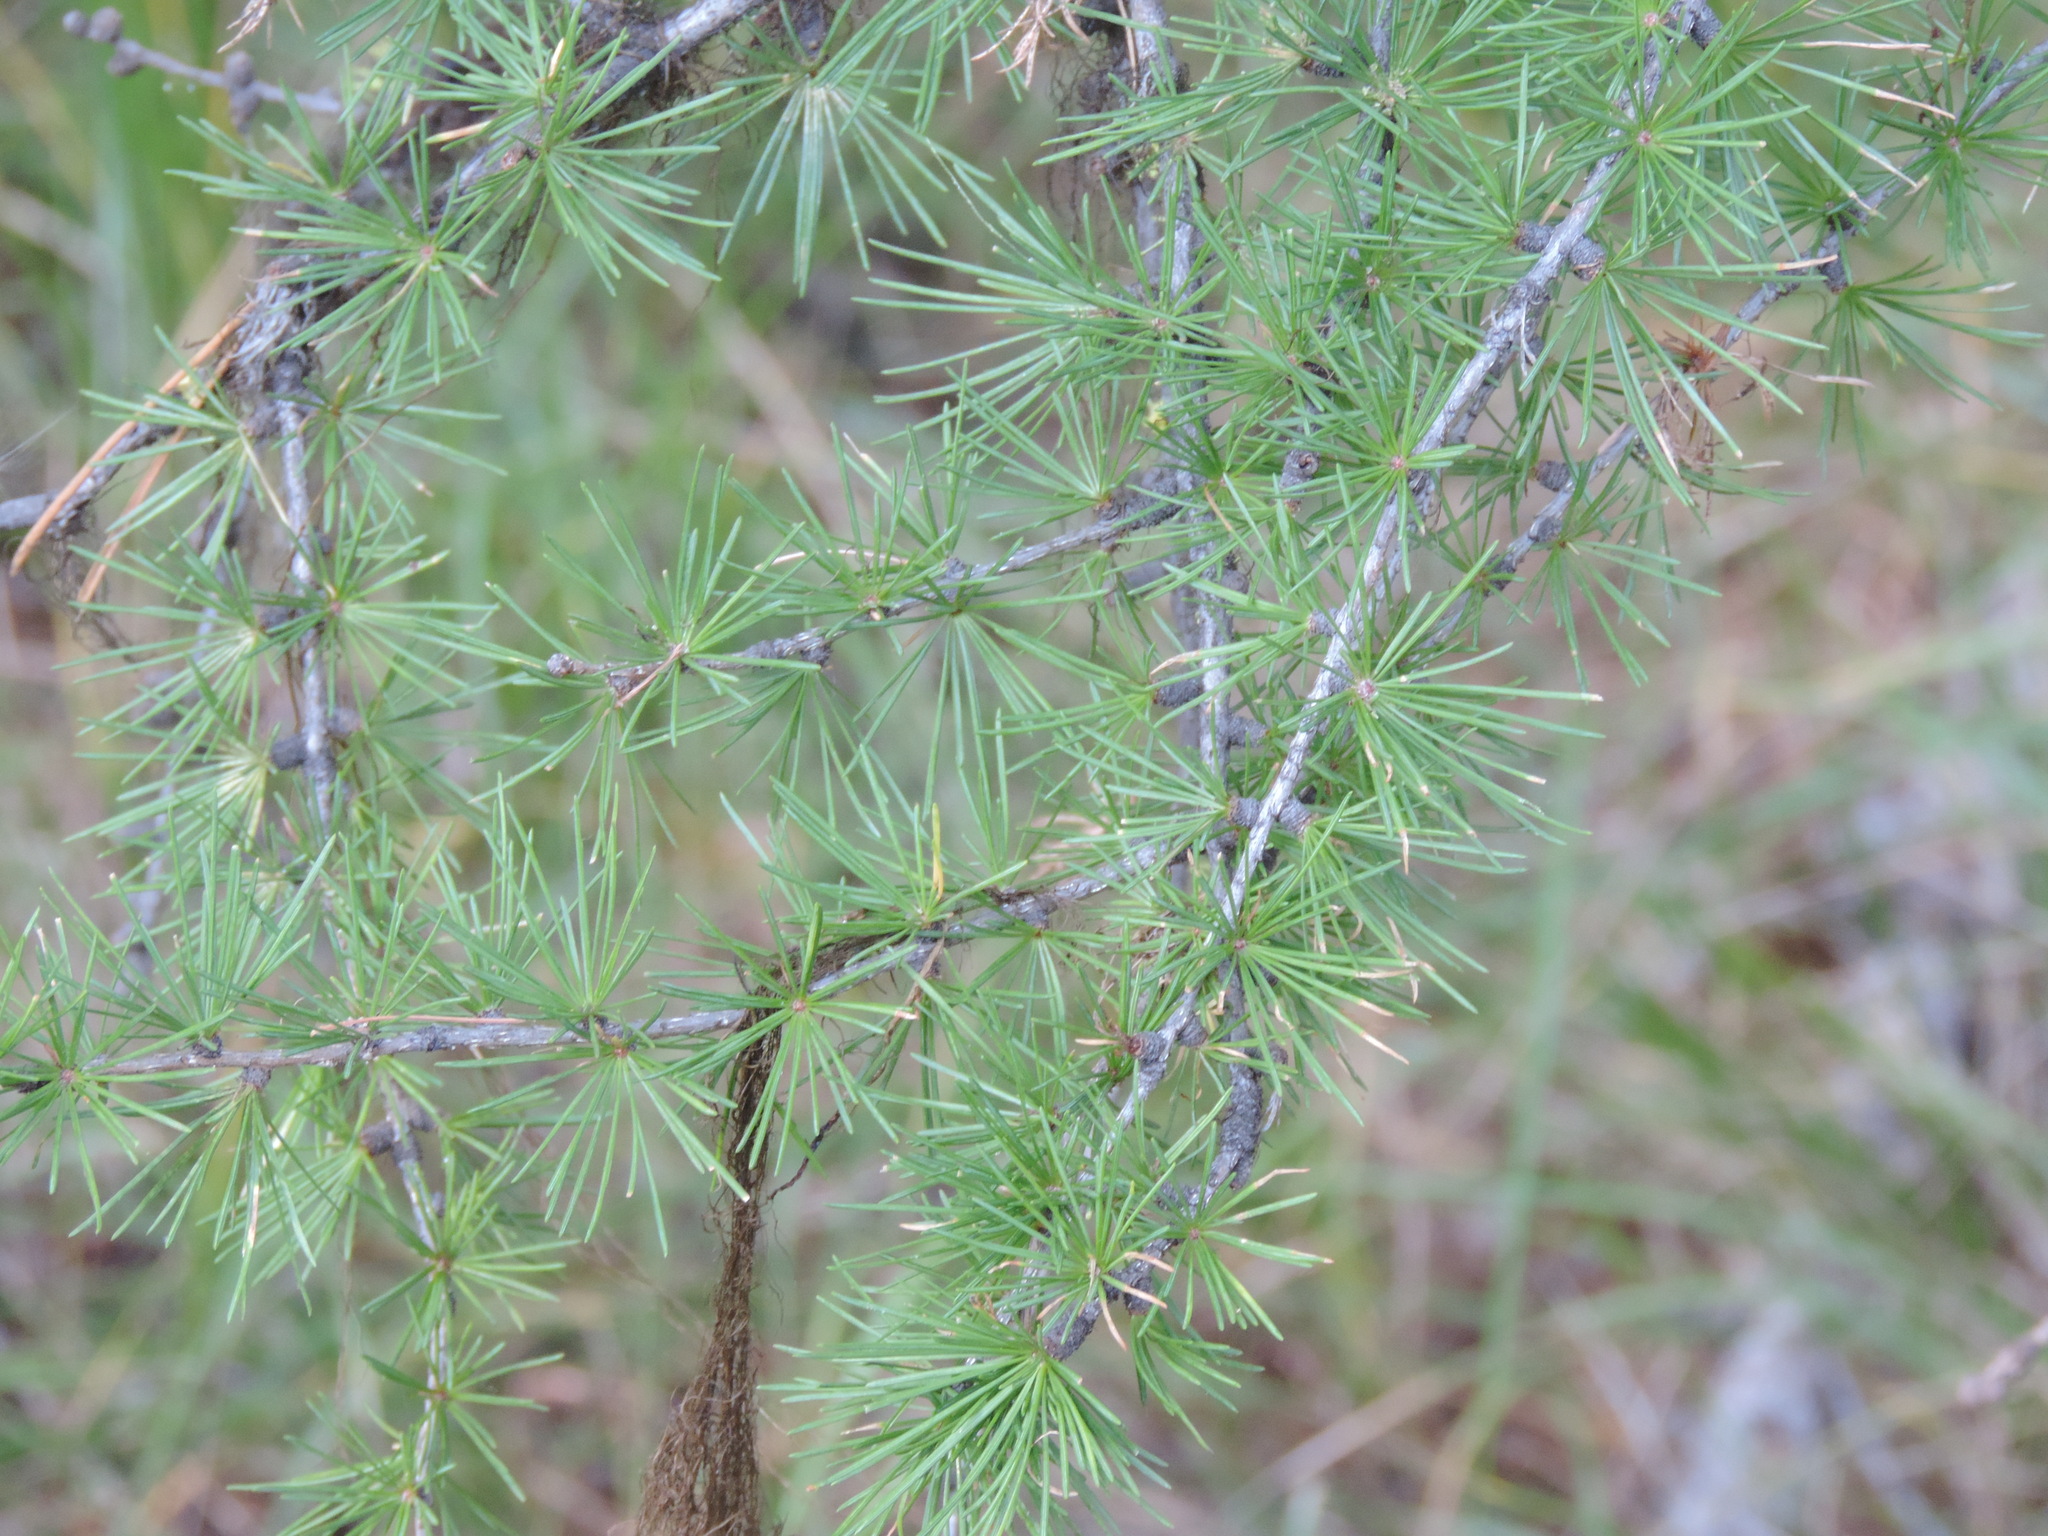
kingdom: Plantae
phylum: Tracheophyta
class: Pinopsida
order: Pinales
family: Pinaceae
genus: Larix
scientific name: Larix occidentalis
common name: Western larch
